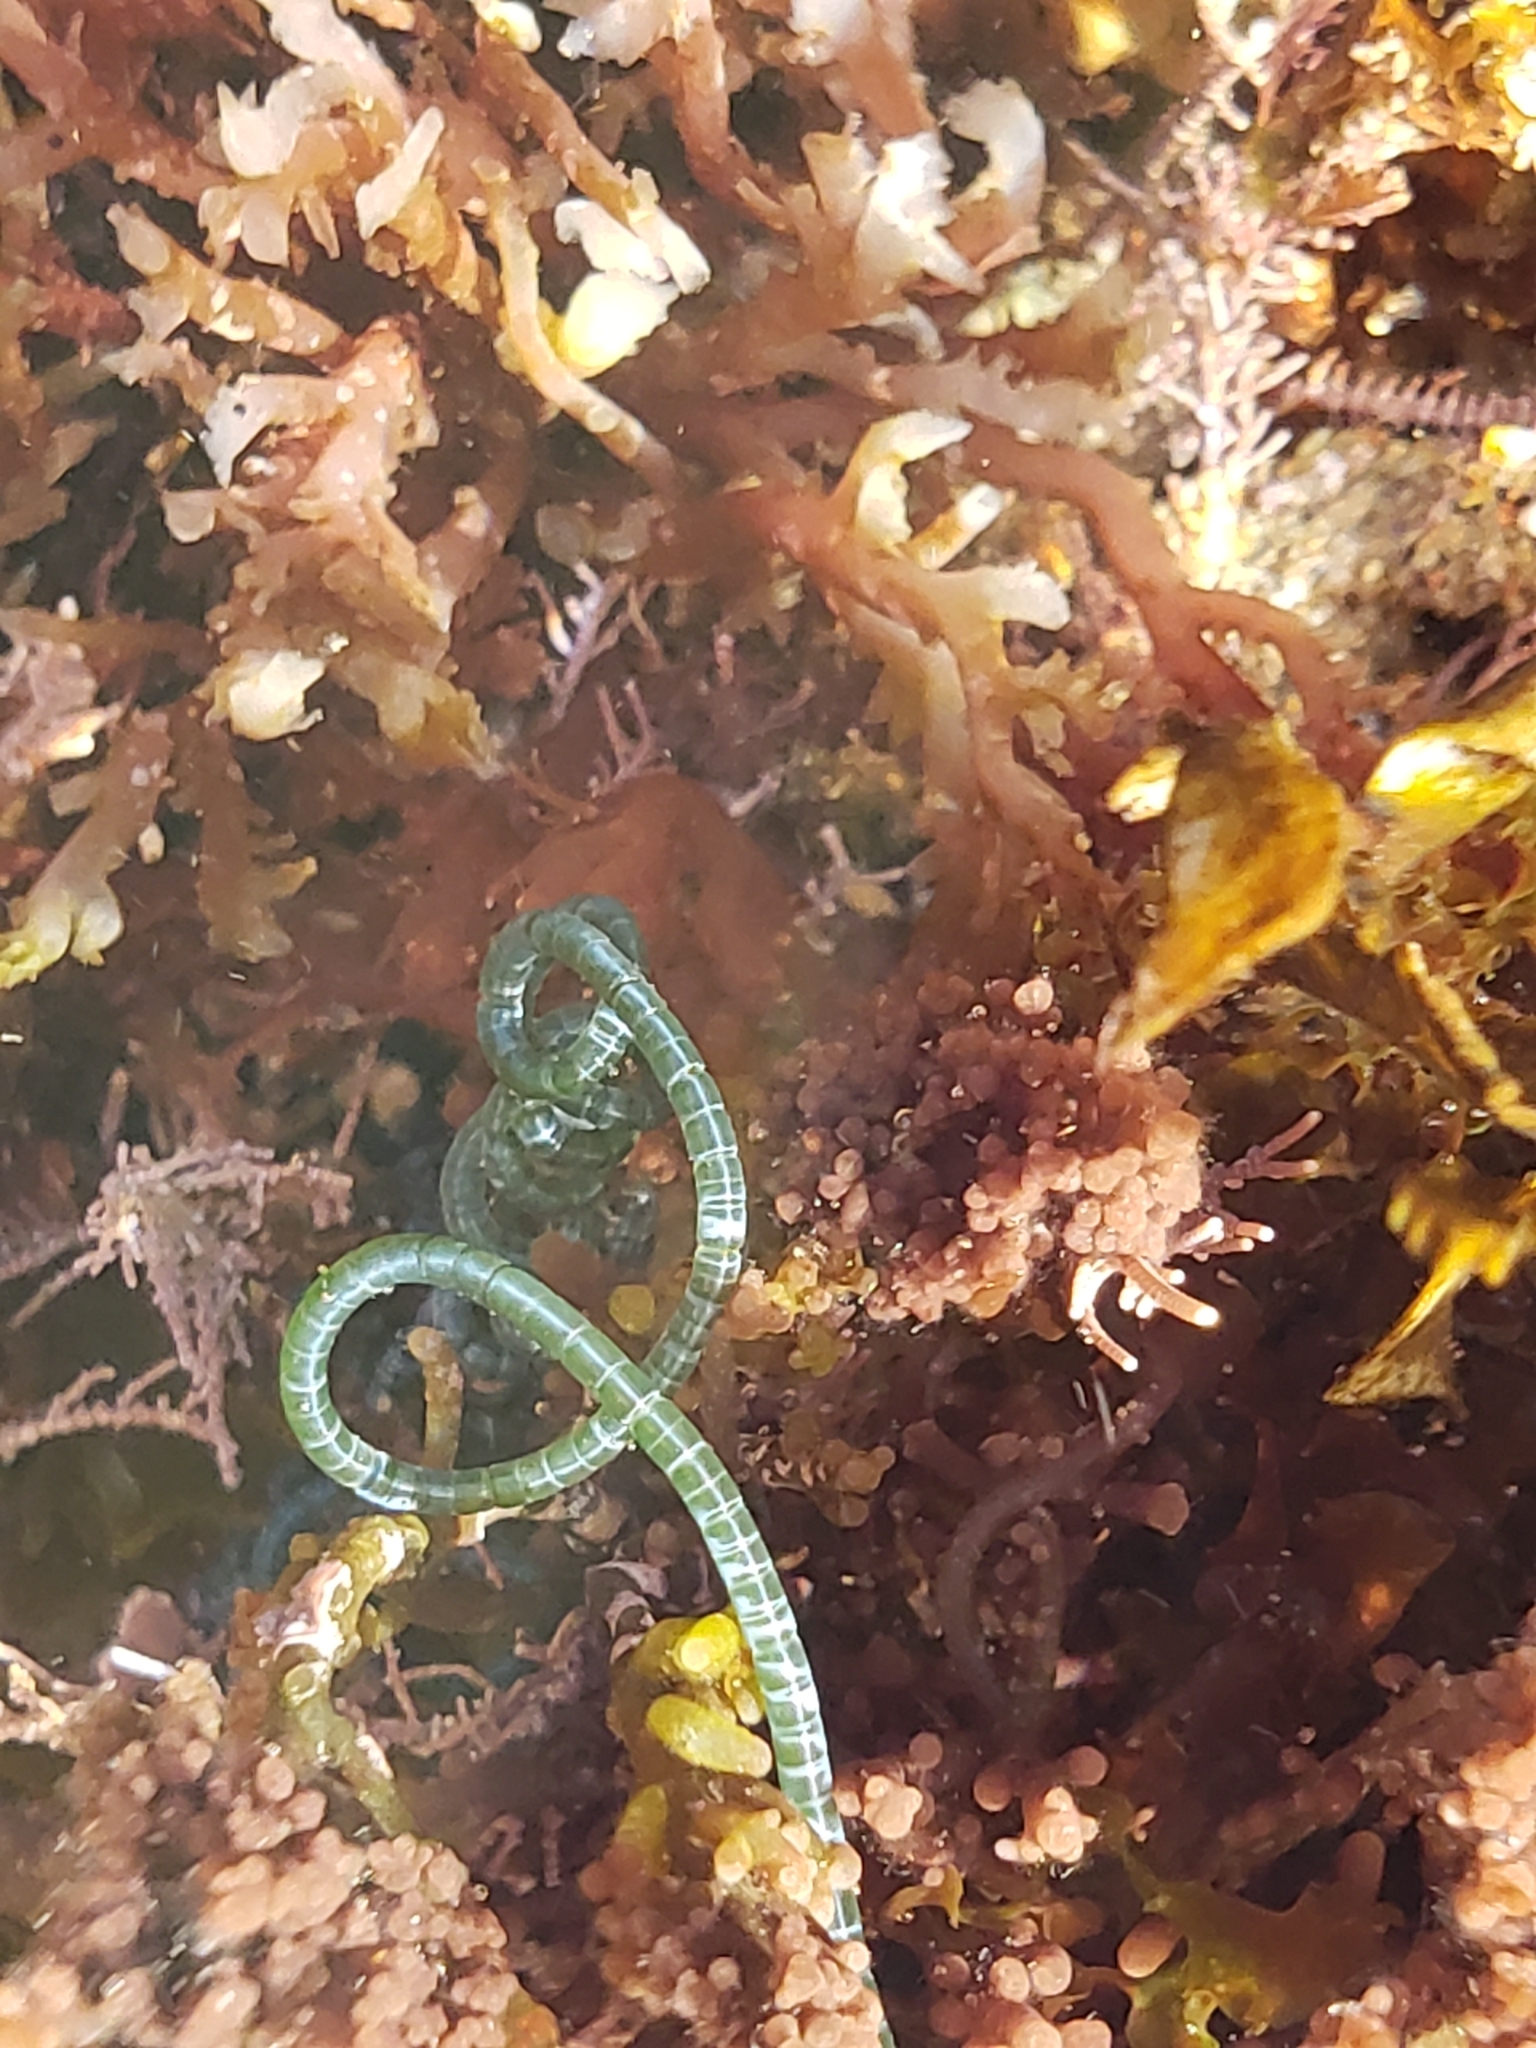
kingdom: Plantae
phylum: Chlorophyta
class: Ulvophyceae
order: Cladophorales
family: Cladophoraceae
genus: Chaetomorpha
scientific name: Chaetomorpha spiralis
